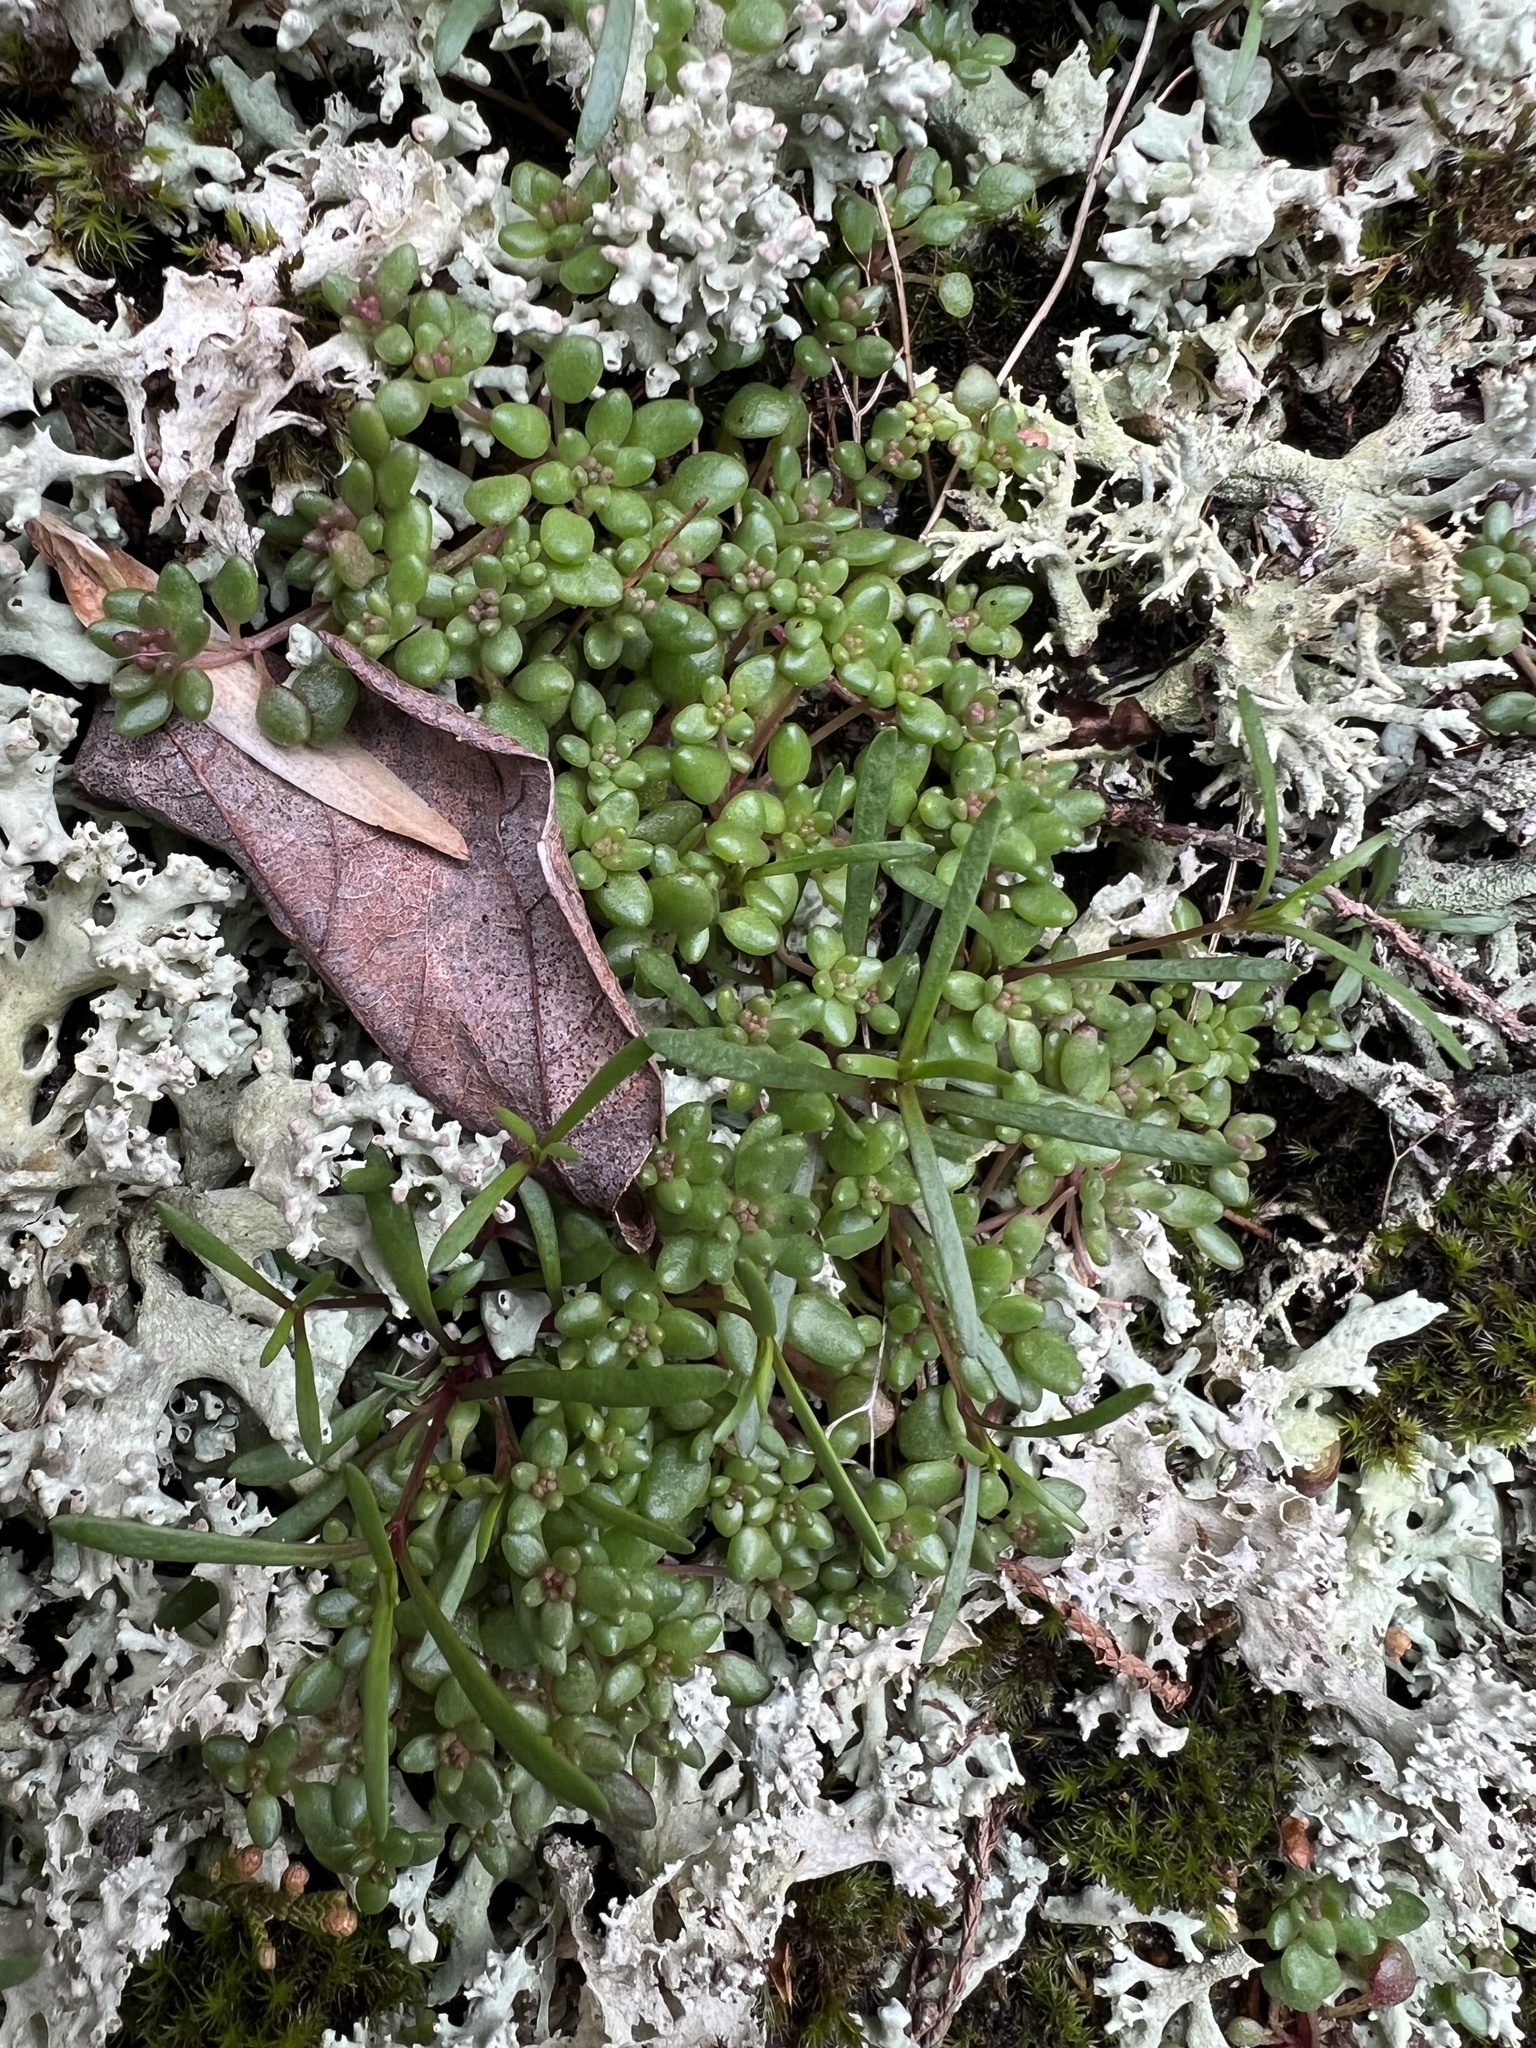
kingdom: Plantae
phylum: Tracheophyta
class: Magnoliopsida
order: Saxifragales
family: Crassulaceae
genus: Sedum
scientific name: Sedum smallii
